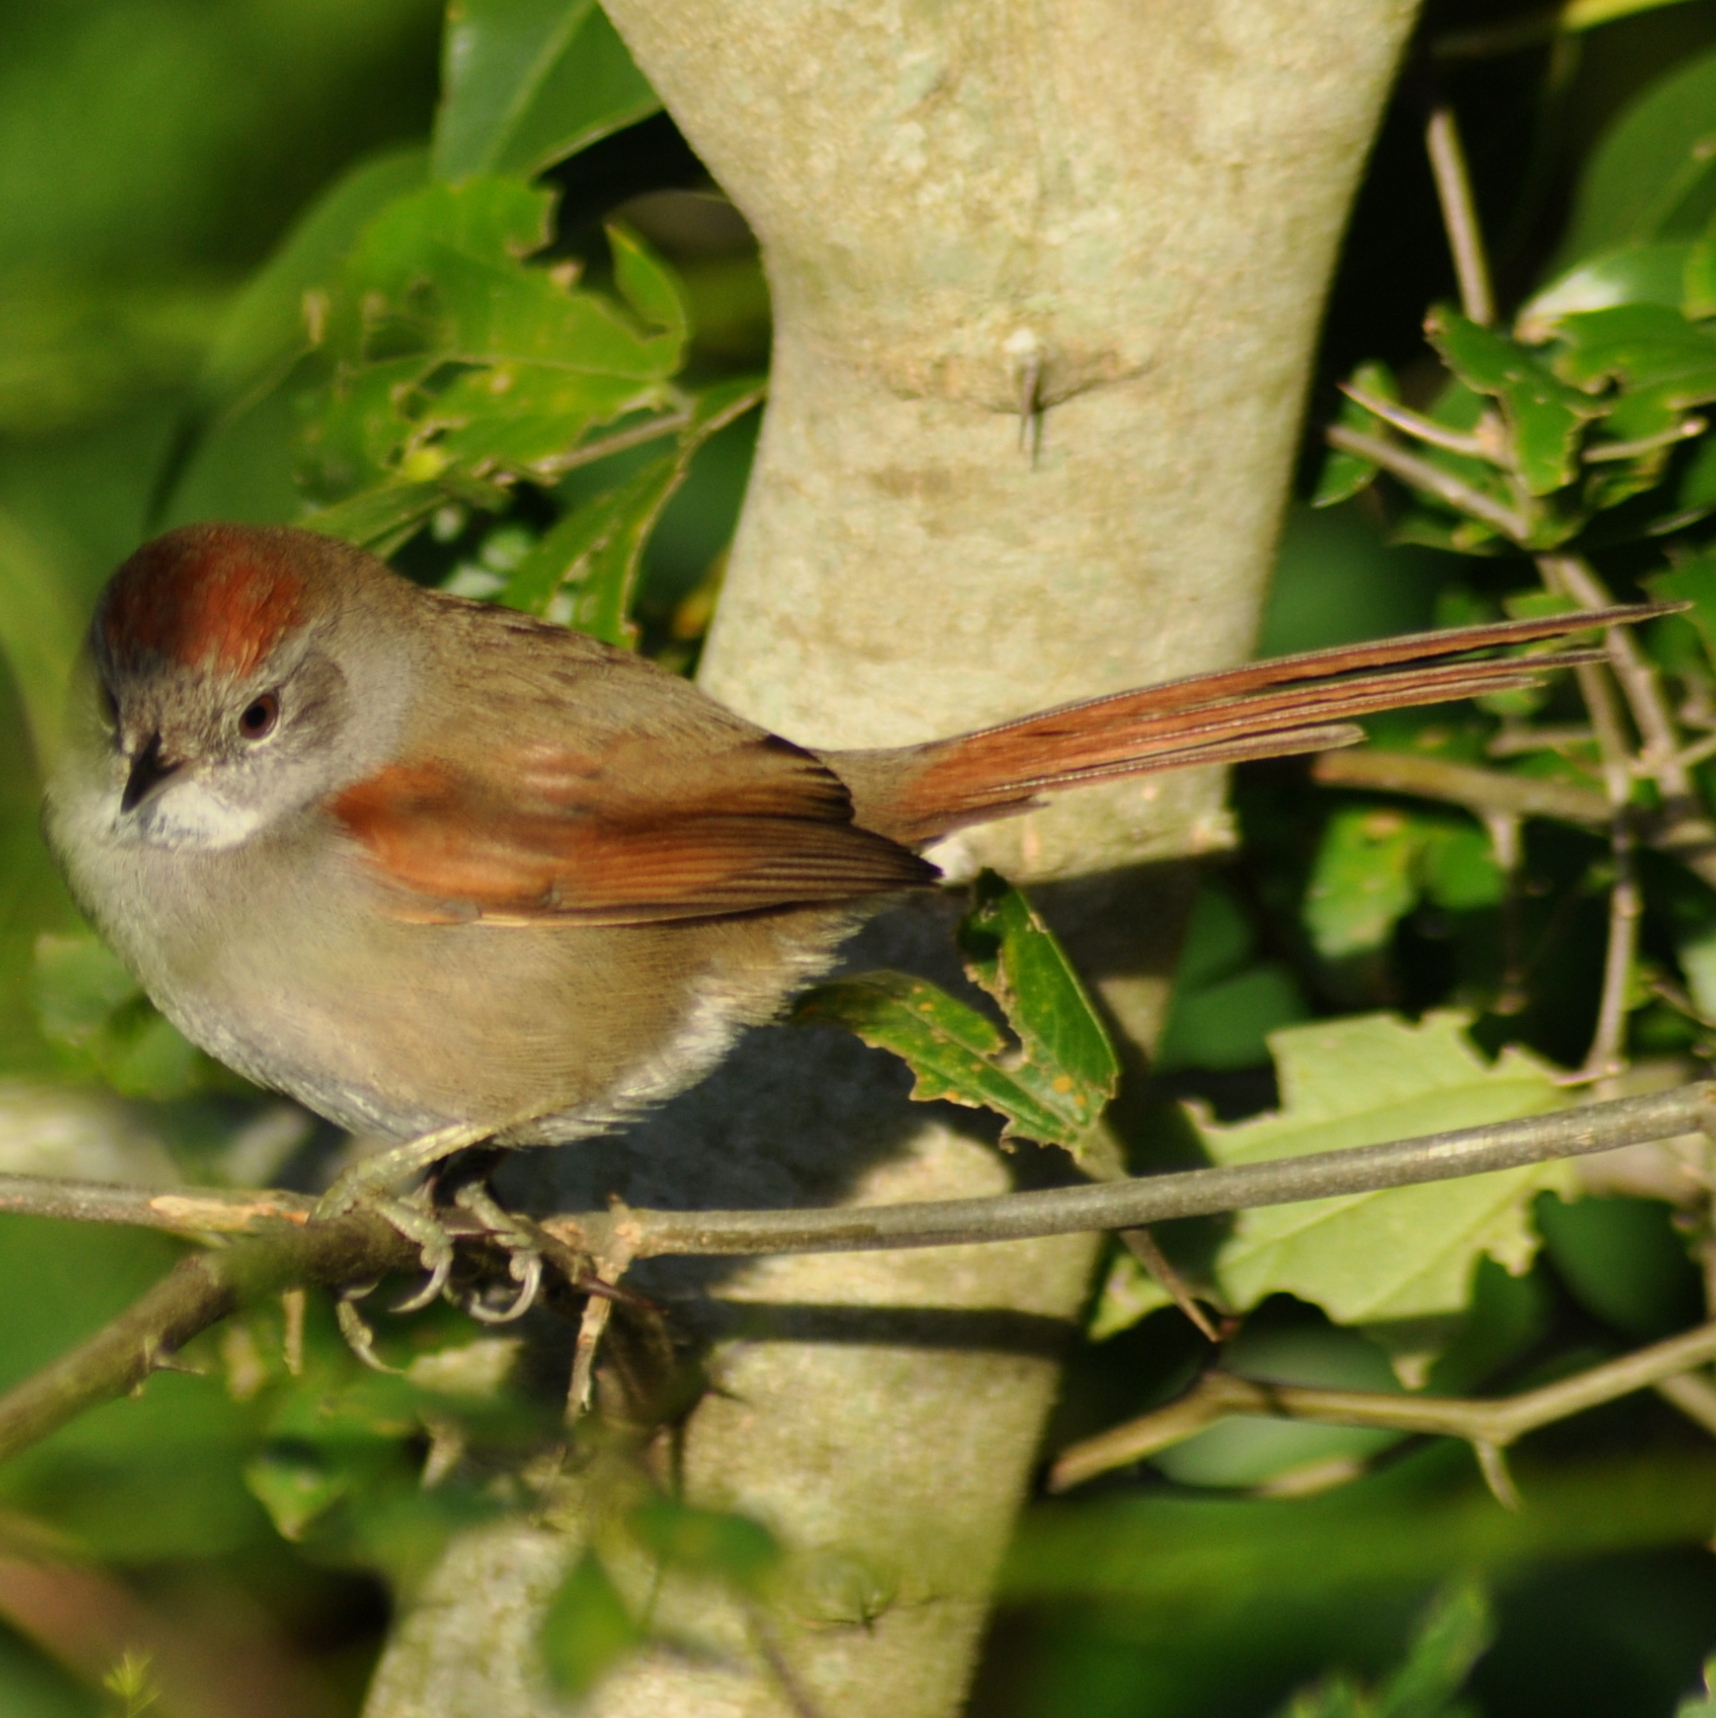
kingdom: Animalia
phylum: Chordata
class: Aves
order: Passeriformes
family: Furnariidae
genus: Synallaxis
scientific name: Synallaxis frontalis
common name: Sooty-fronted spinetail
